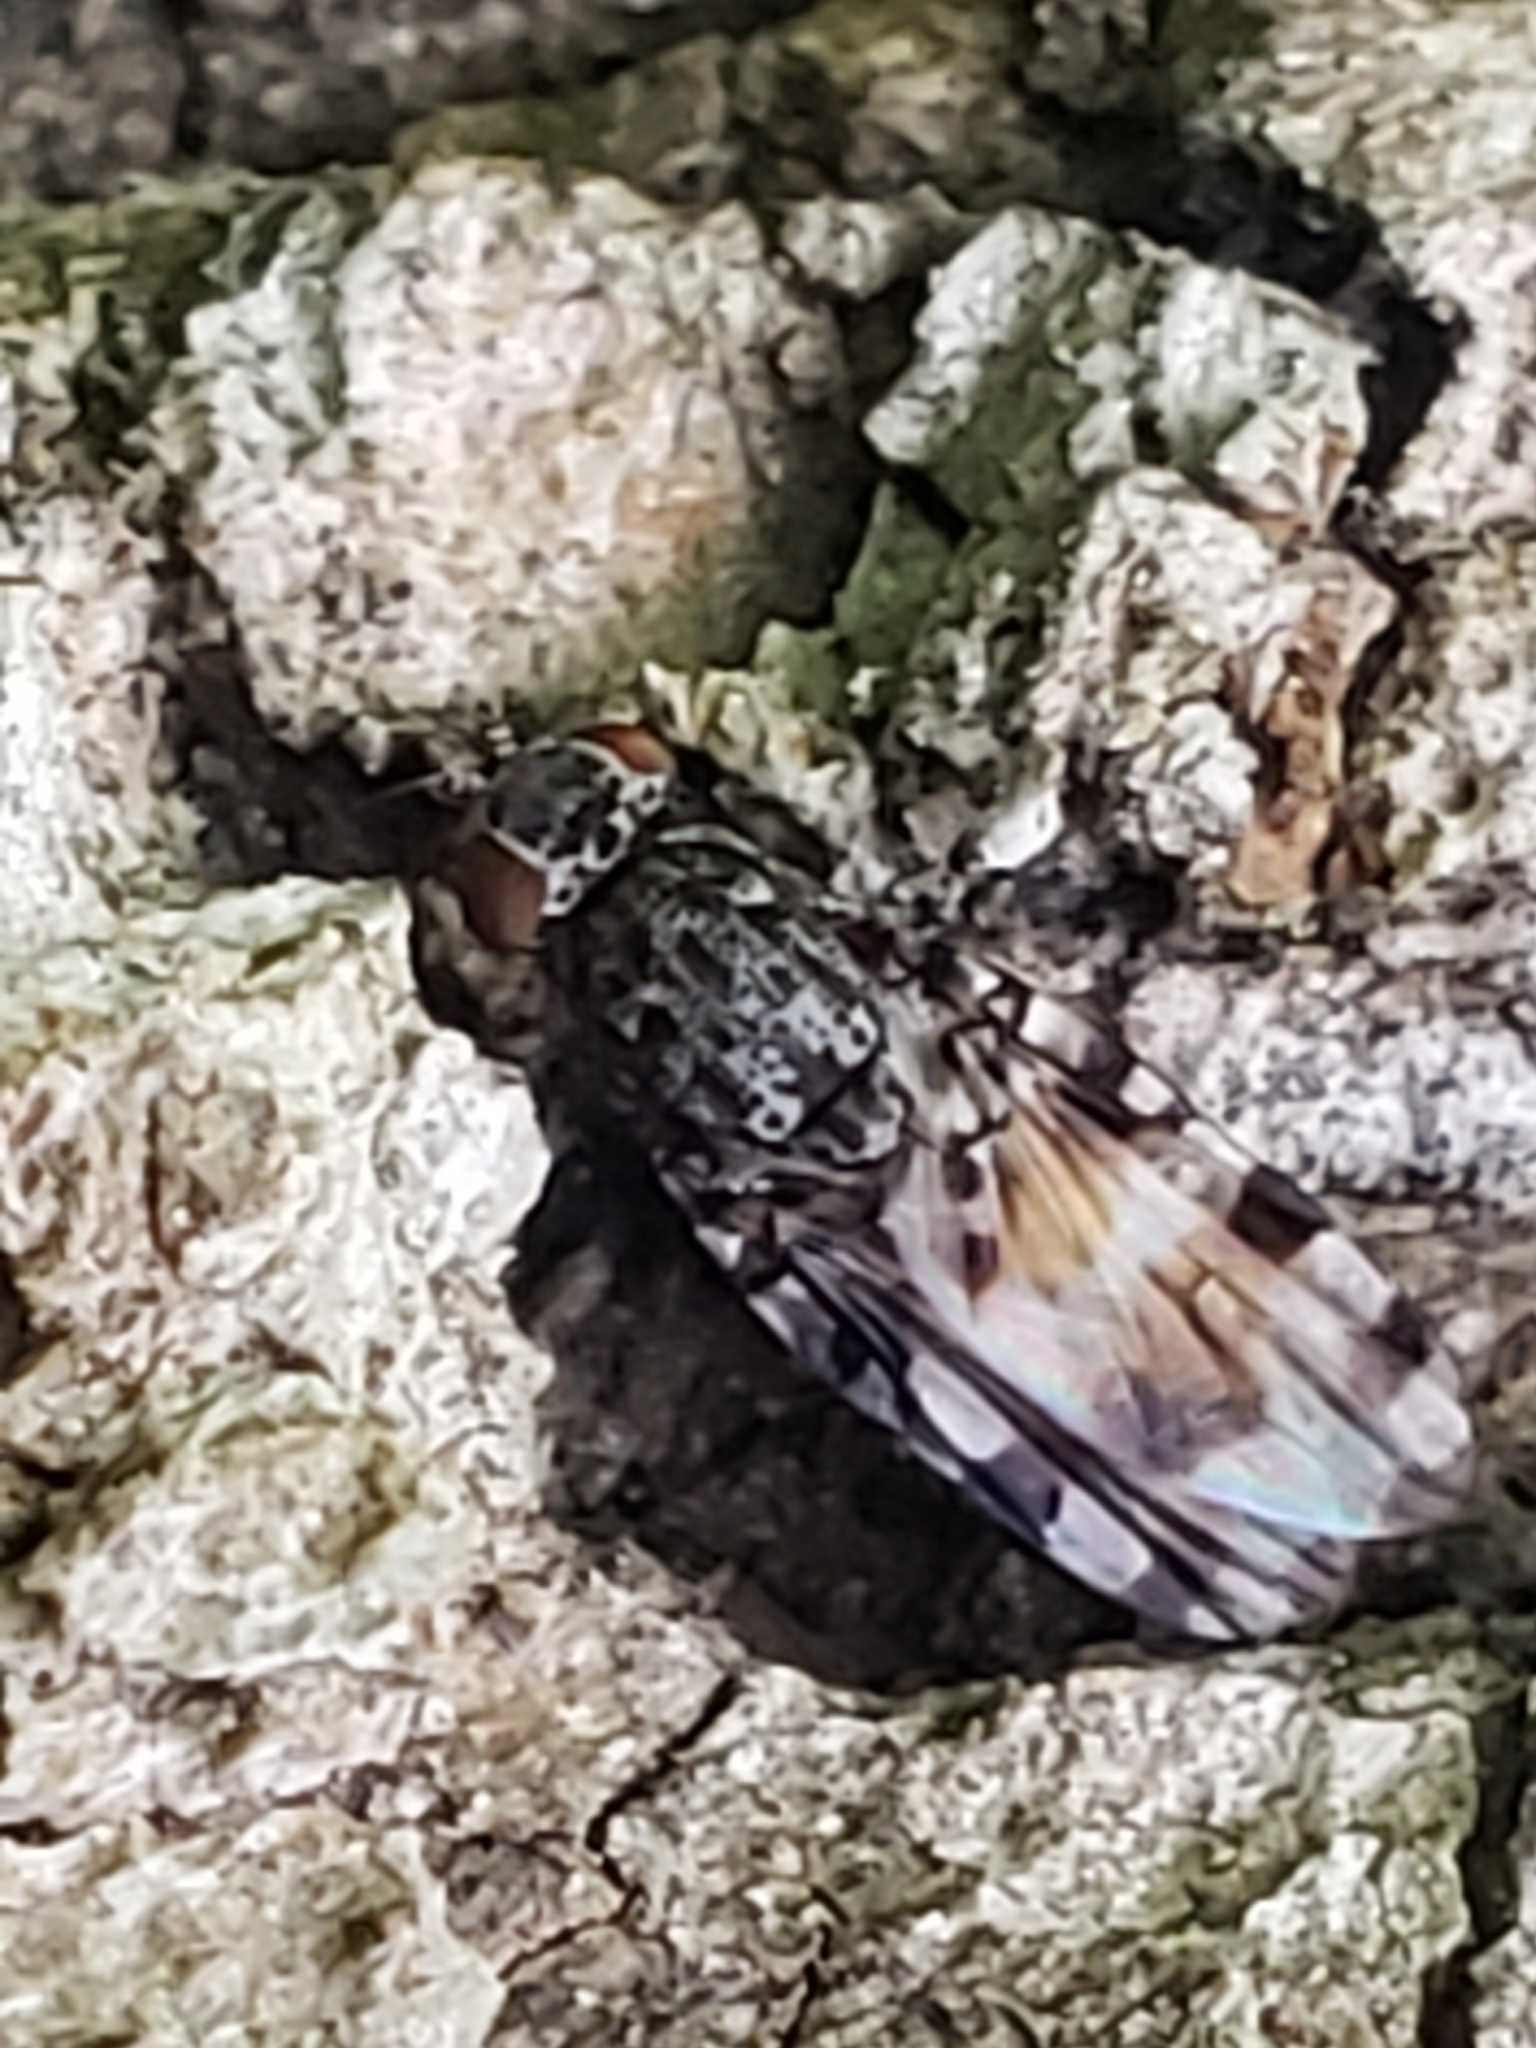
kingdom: Animalia
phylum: Arthropoda
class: Insecta
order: Diptera
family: Ulidiidae
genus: Pseudotephritis
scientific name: Pseudotephritis vau
